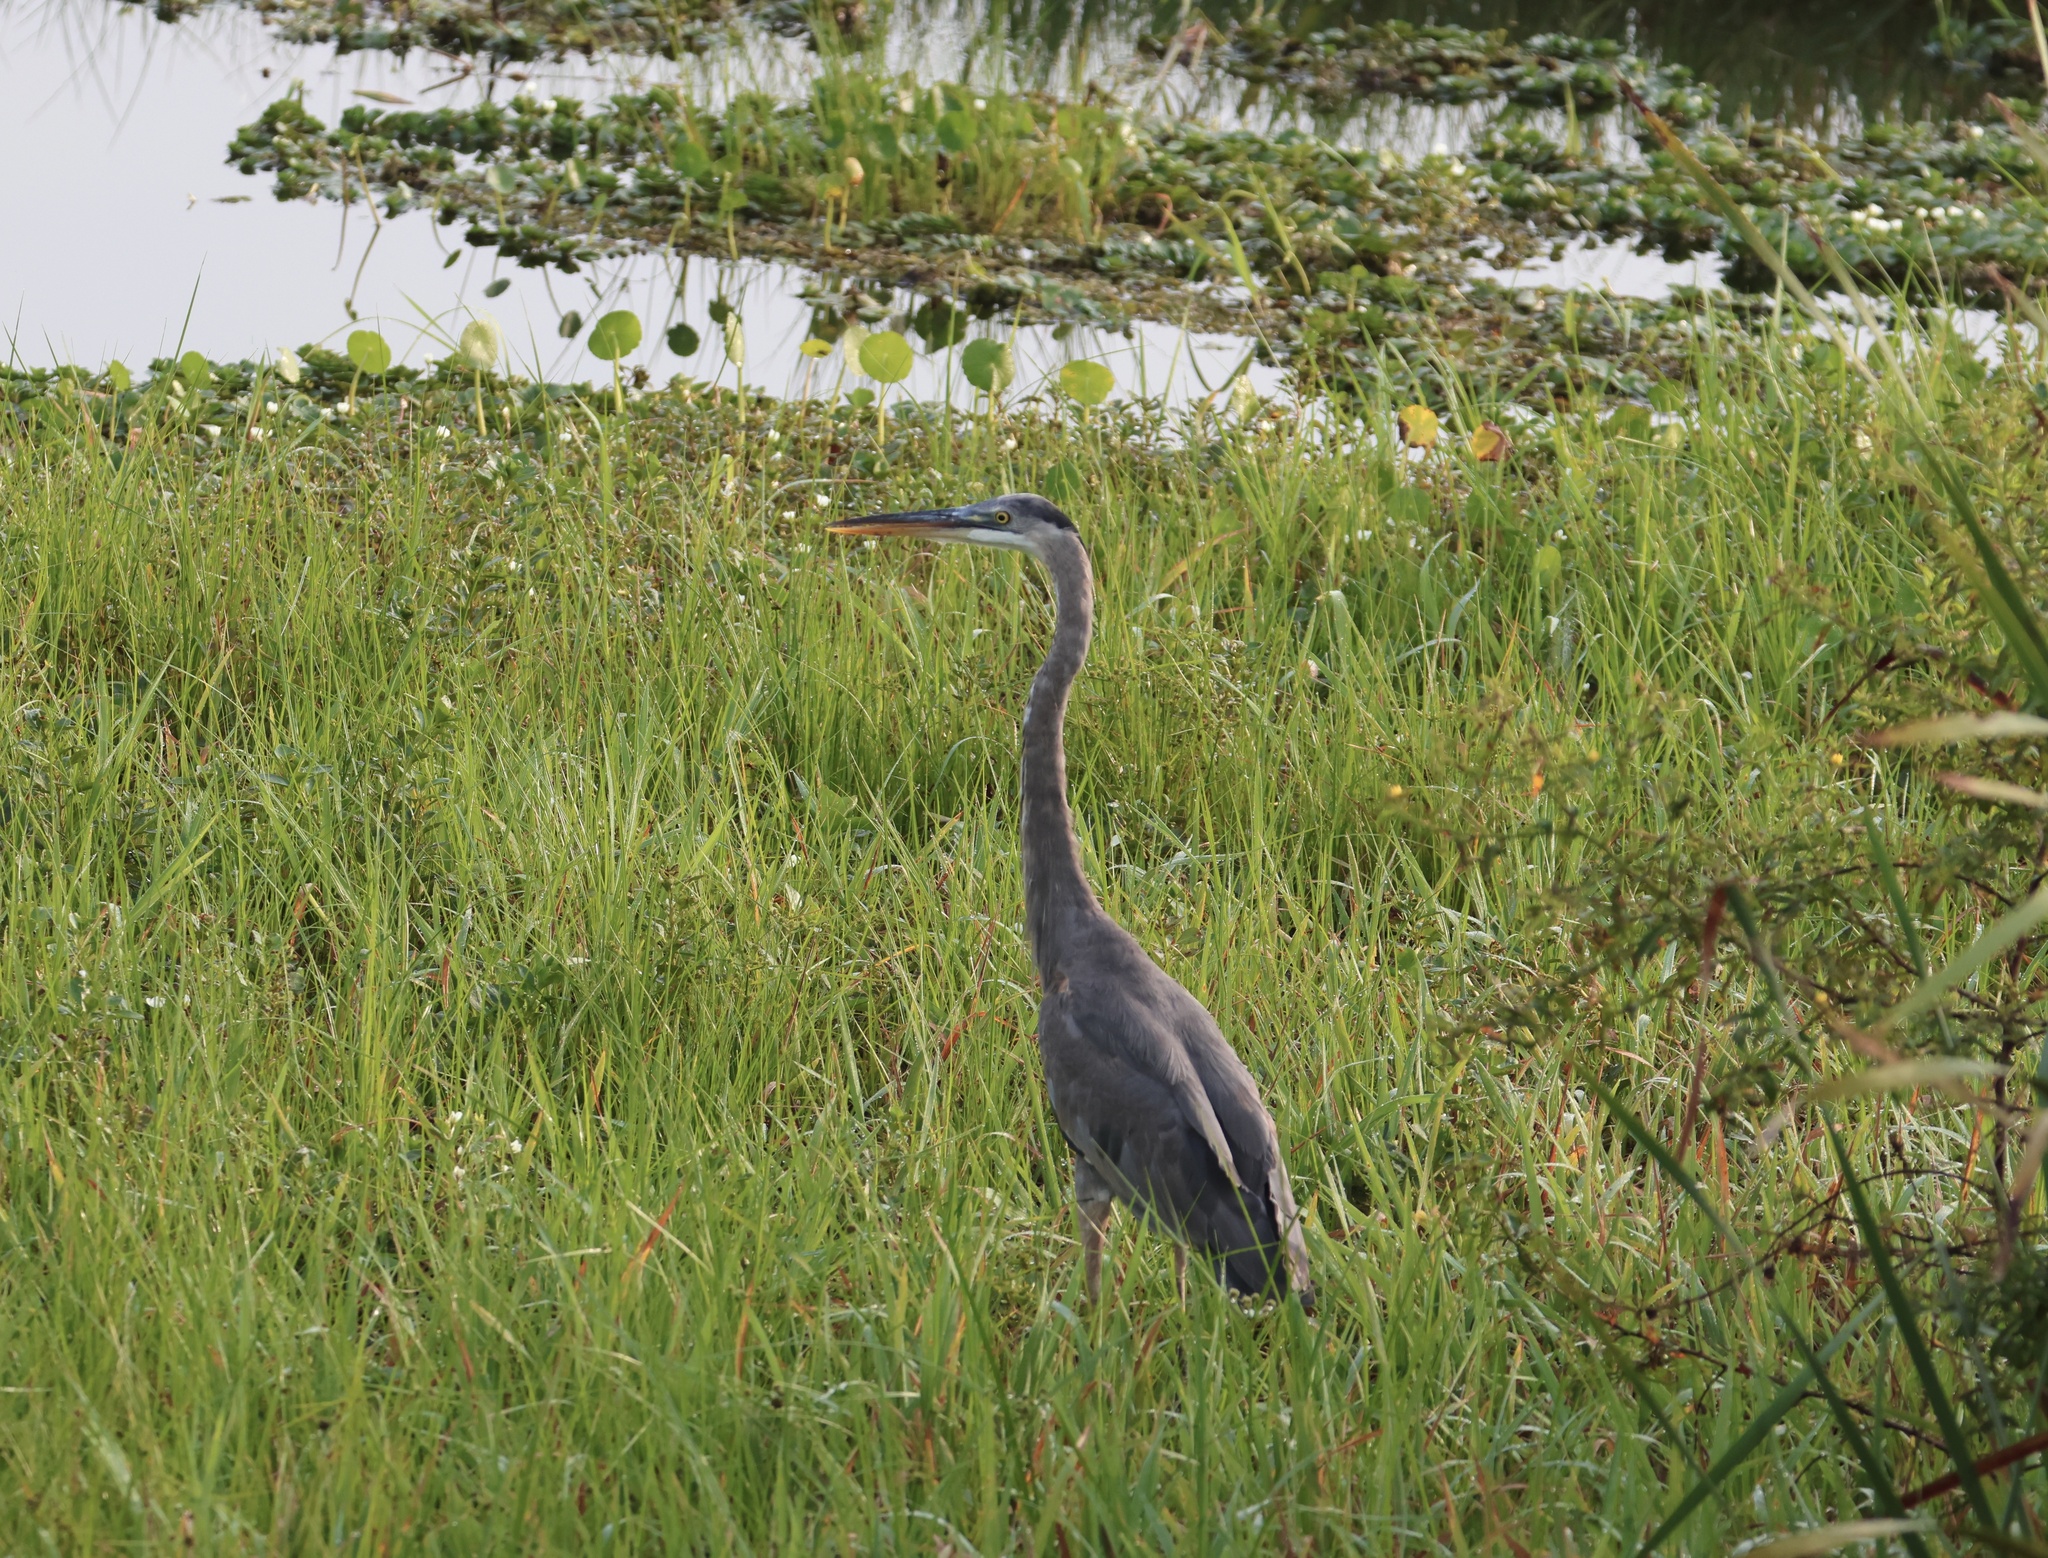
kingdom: Animalia
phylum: Chordata
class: Aves
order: Pelecaniformes
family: Ardeidae
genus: Ardea
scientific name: Ardea herodias
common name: Great blue heron
